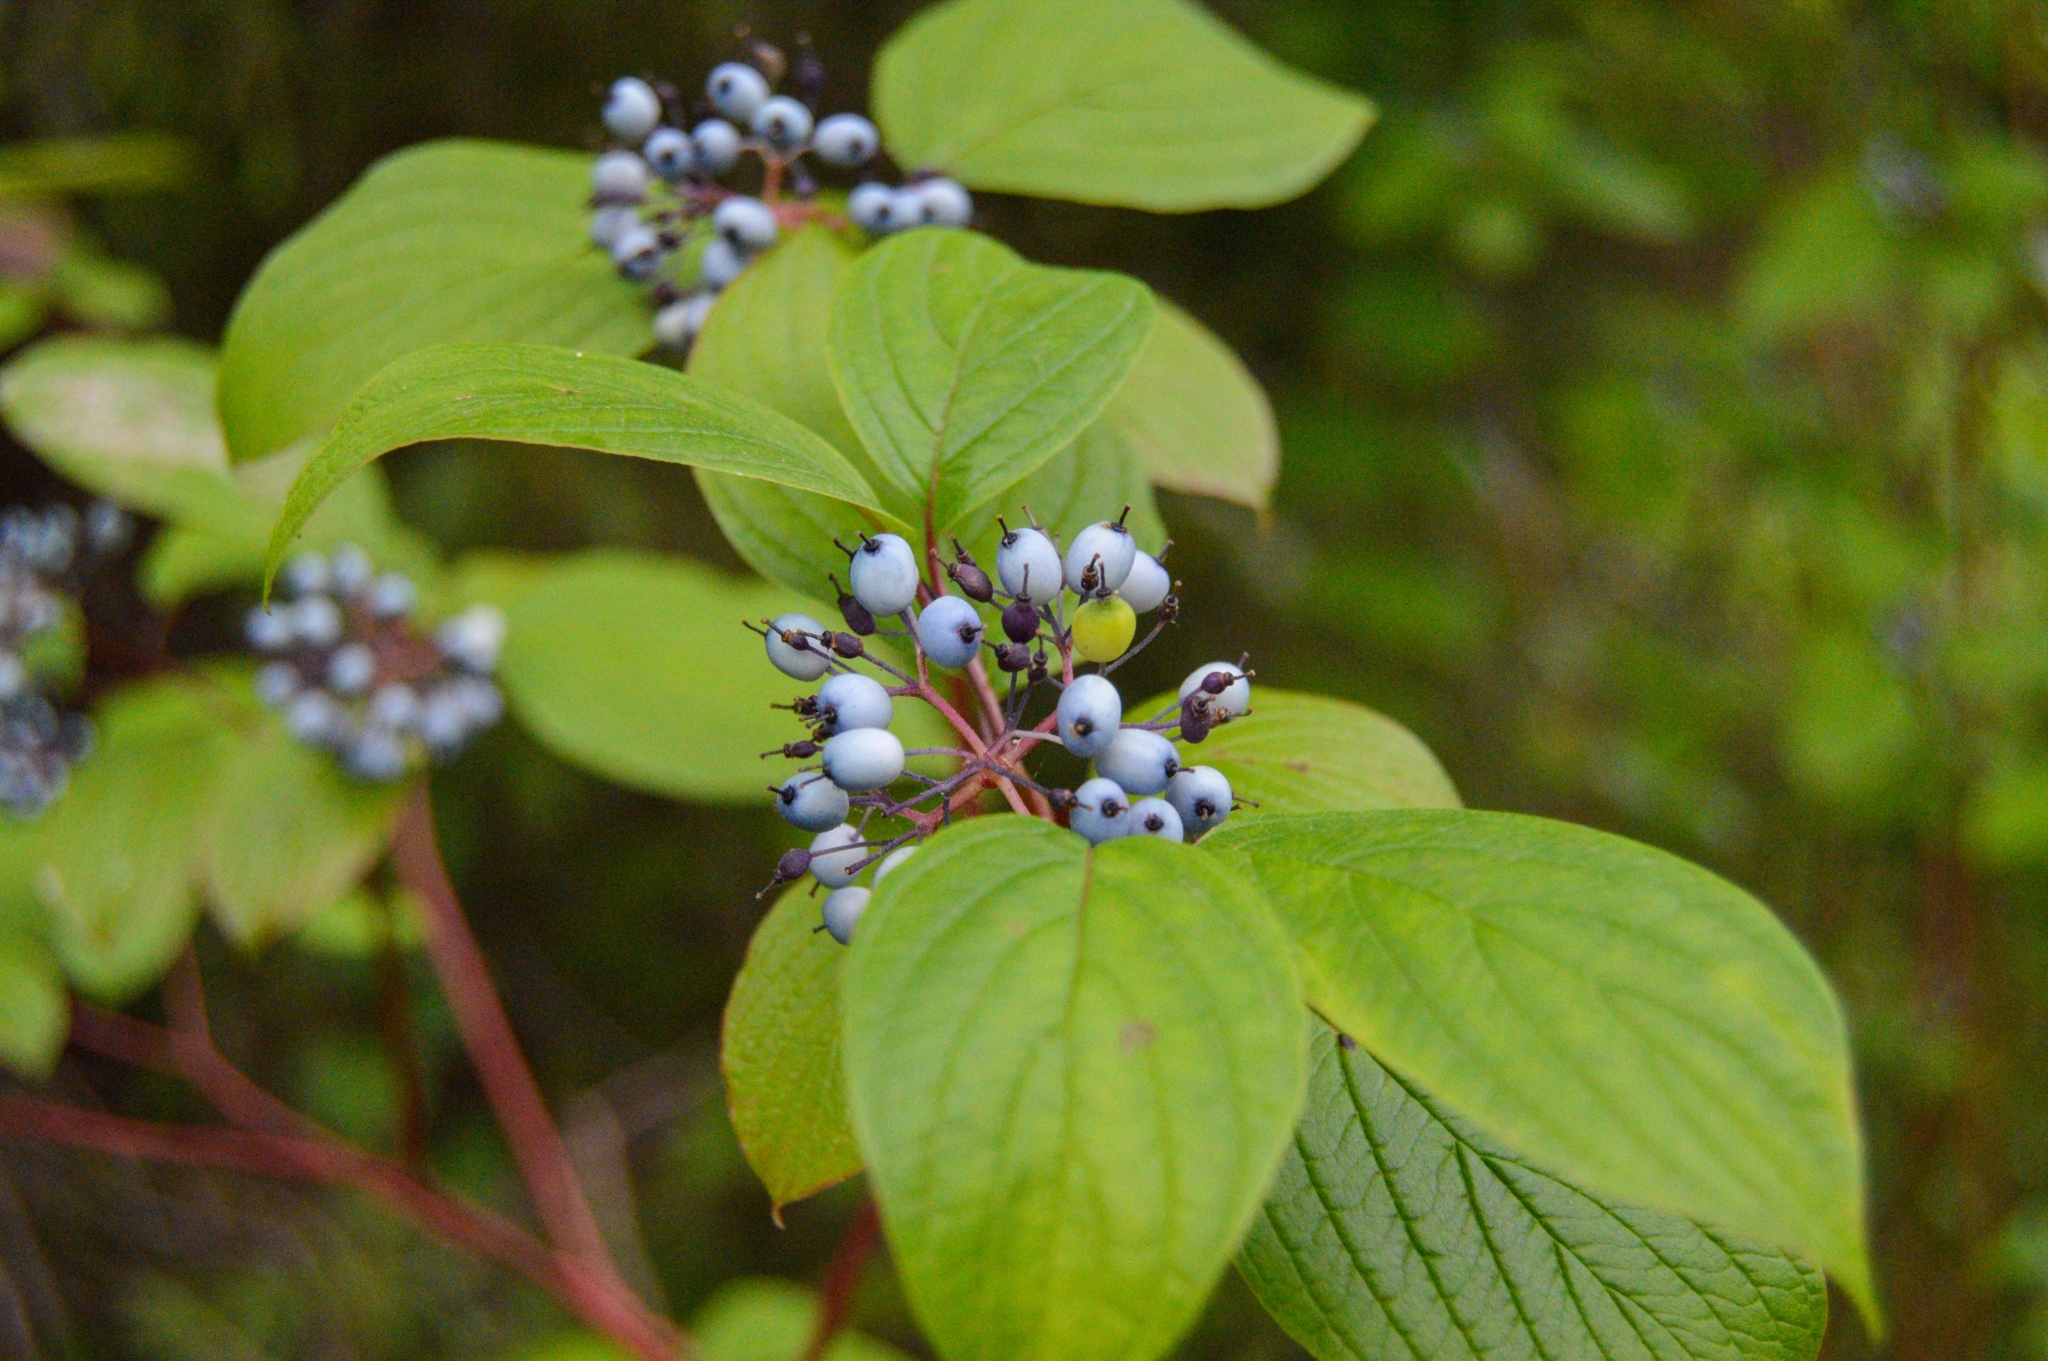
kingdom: Plantae
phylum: Tracheophyta
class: Magnoliopsida
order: Cornales
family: Cornaceae
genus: Cornus
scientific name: Cornus alba
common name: White dogwood
